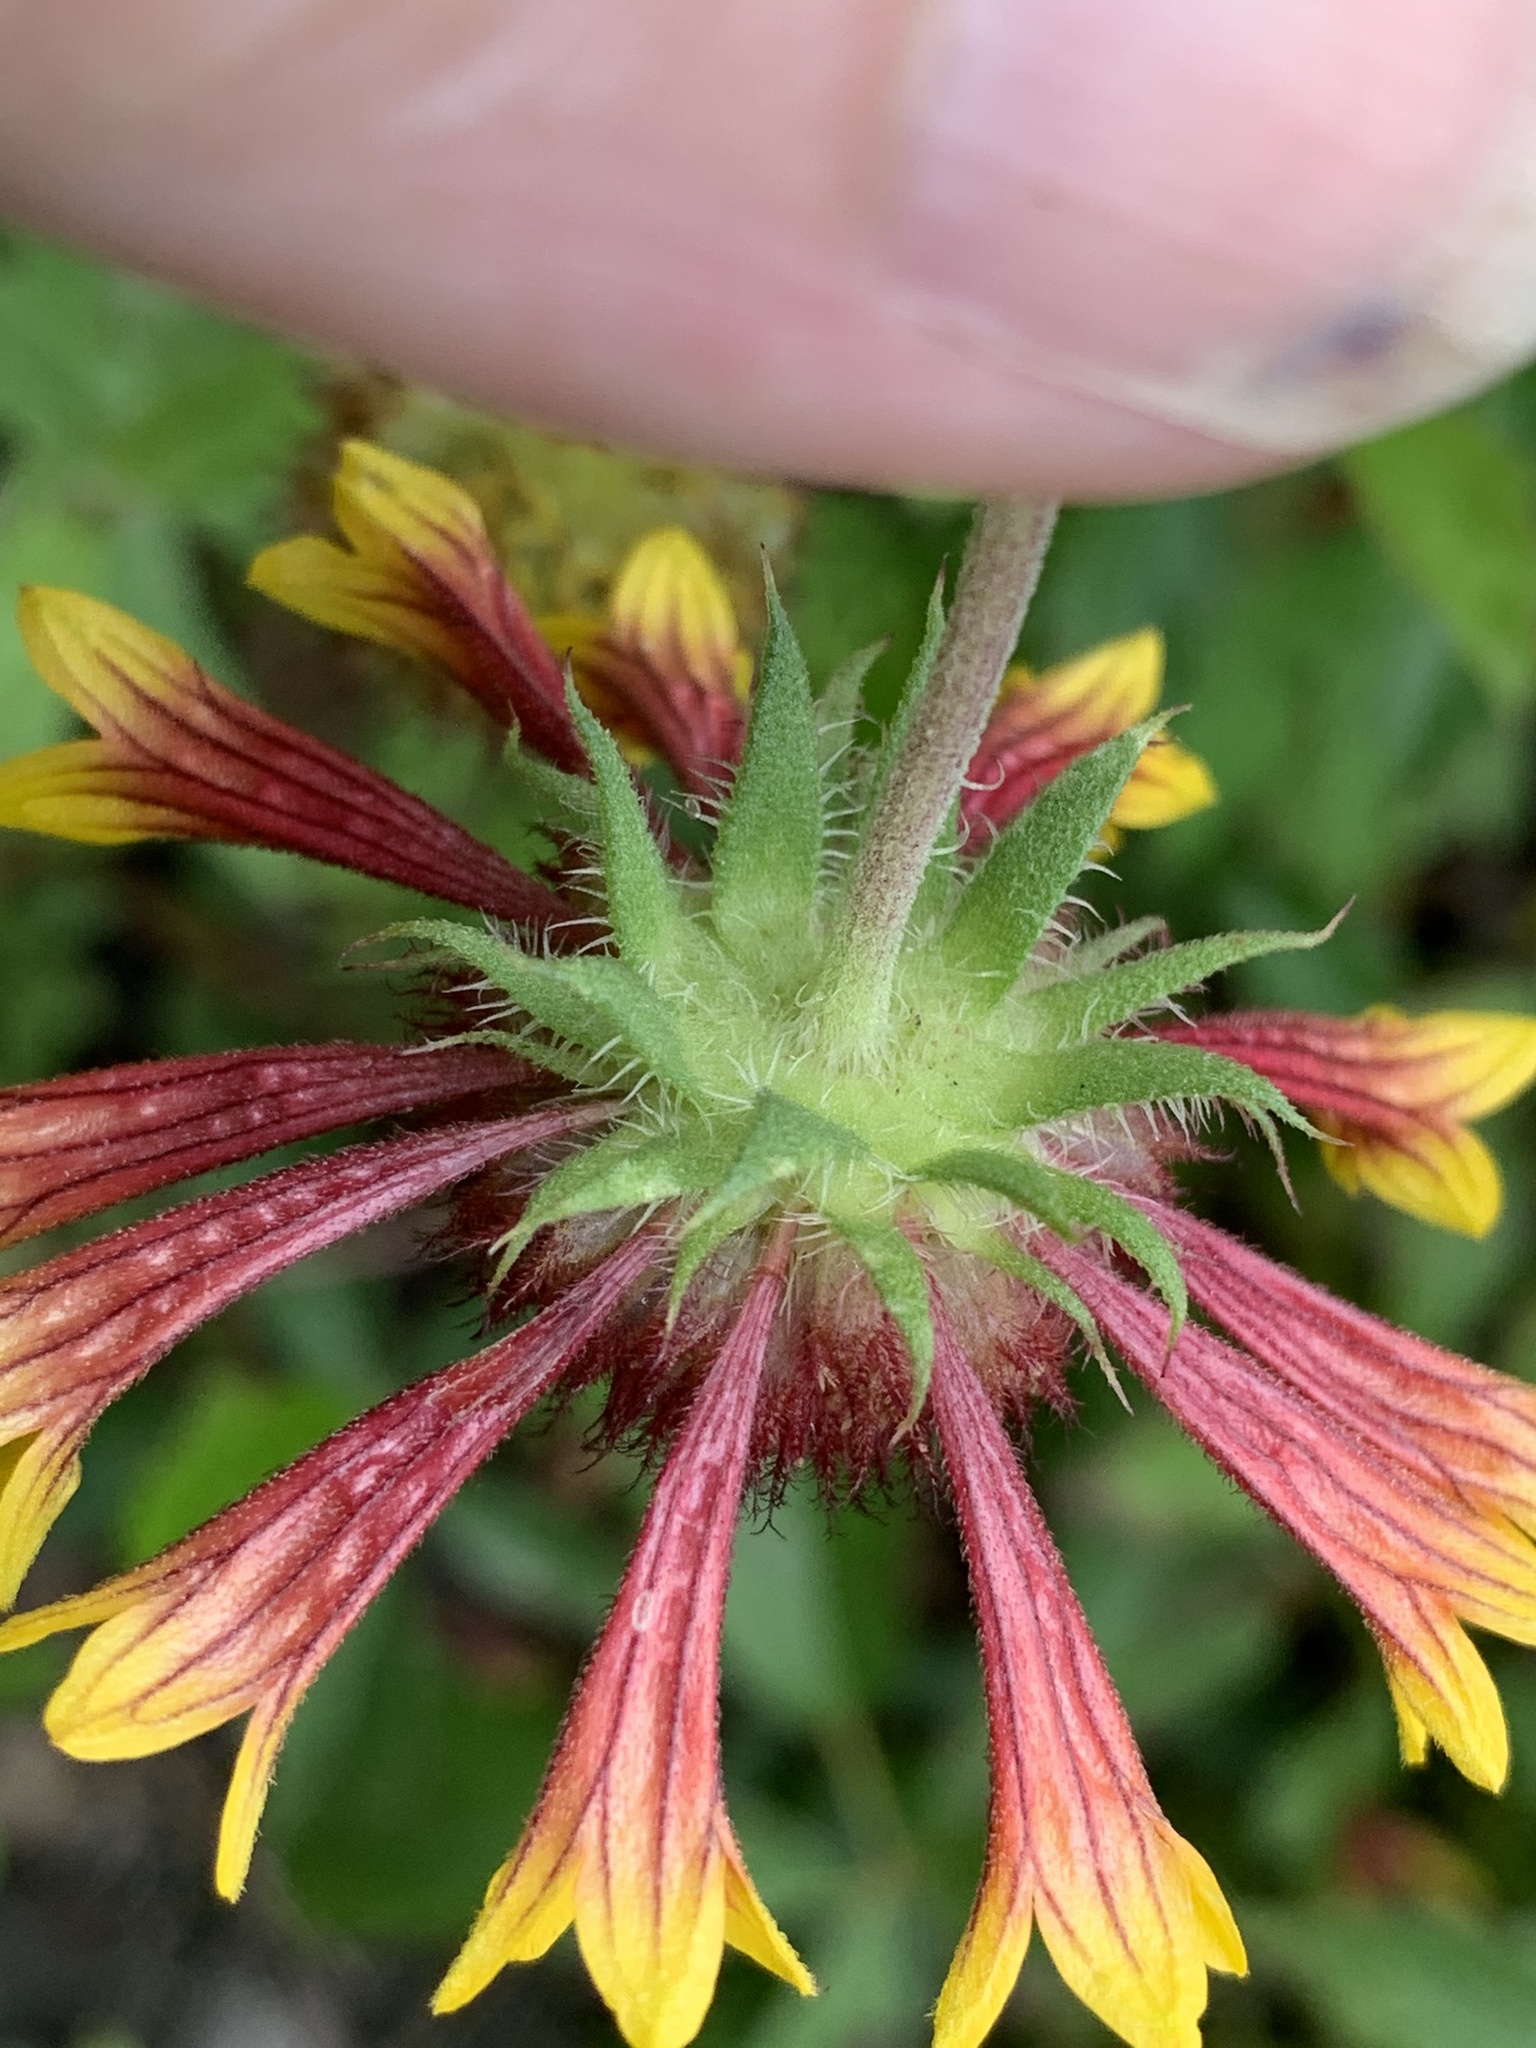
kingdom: Plantae
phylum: Tracheophyta
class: Magnoliopsida
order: Asterales
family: Asteraceae
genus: Gaillardia
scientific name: Gaillardia pulchella
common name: Firewheel
